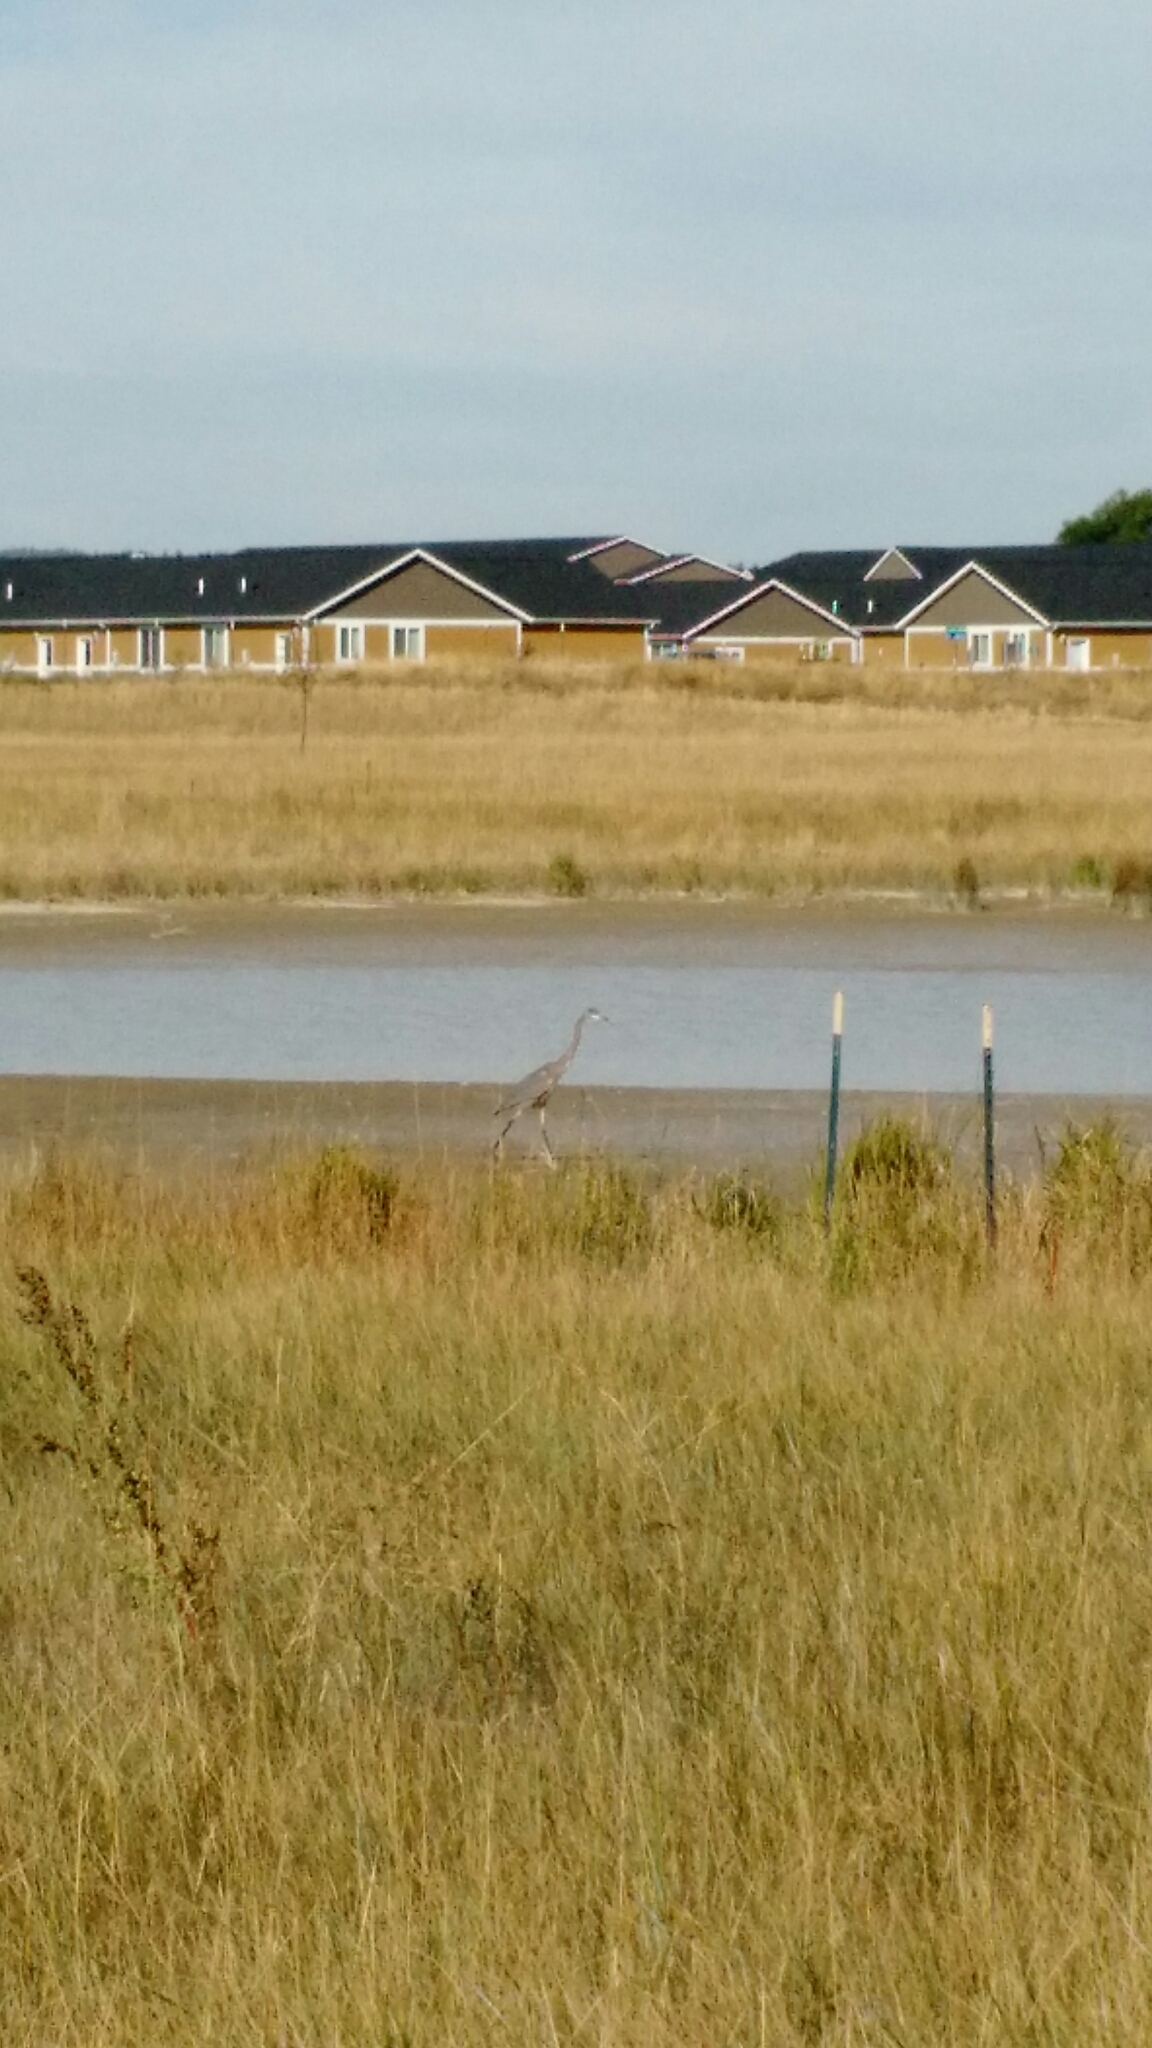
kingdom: Animalia
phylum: Chordata
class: Aves
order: Pelecaniformes
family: Ardeidae
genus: Ardea
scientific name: Ardea herodias
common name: Great blue heron
